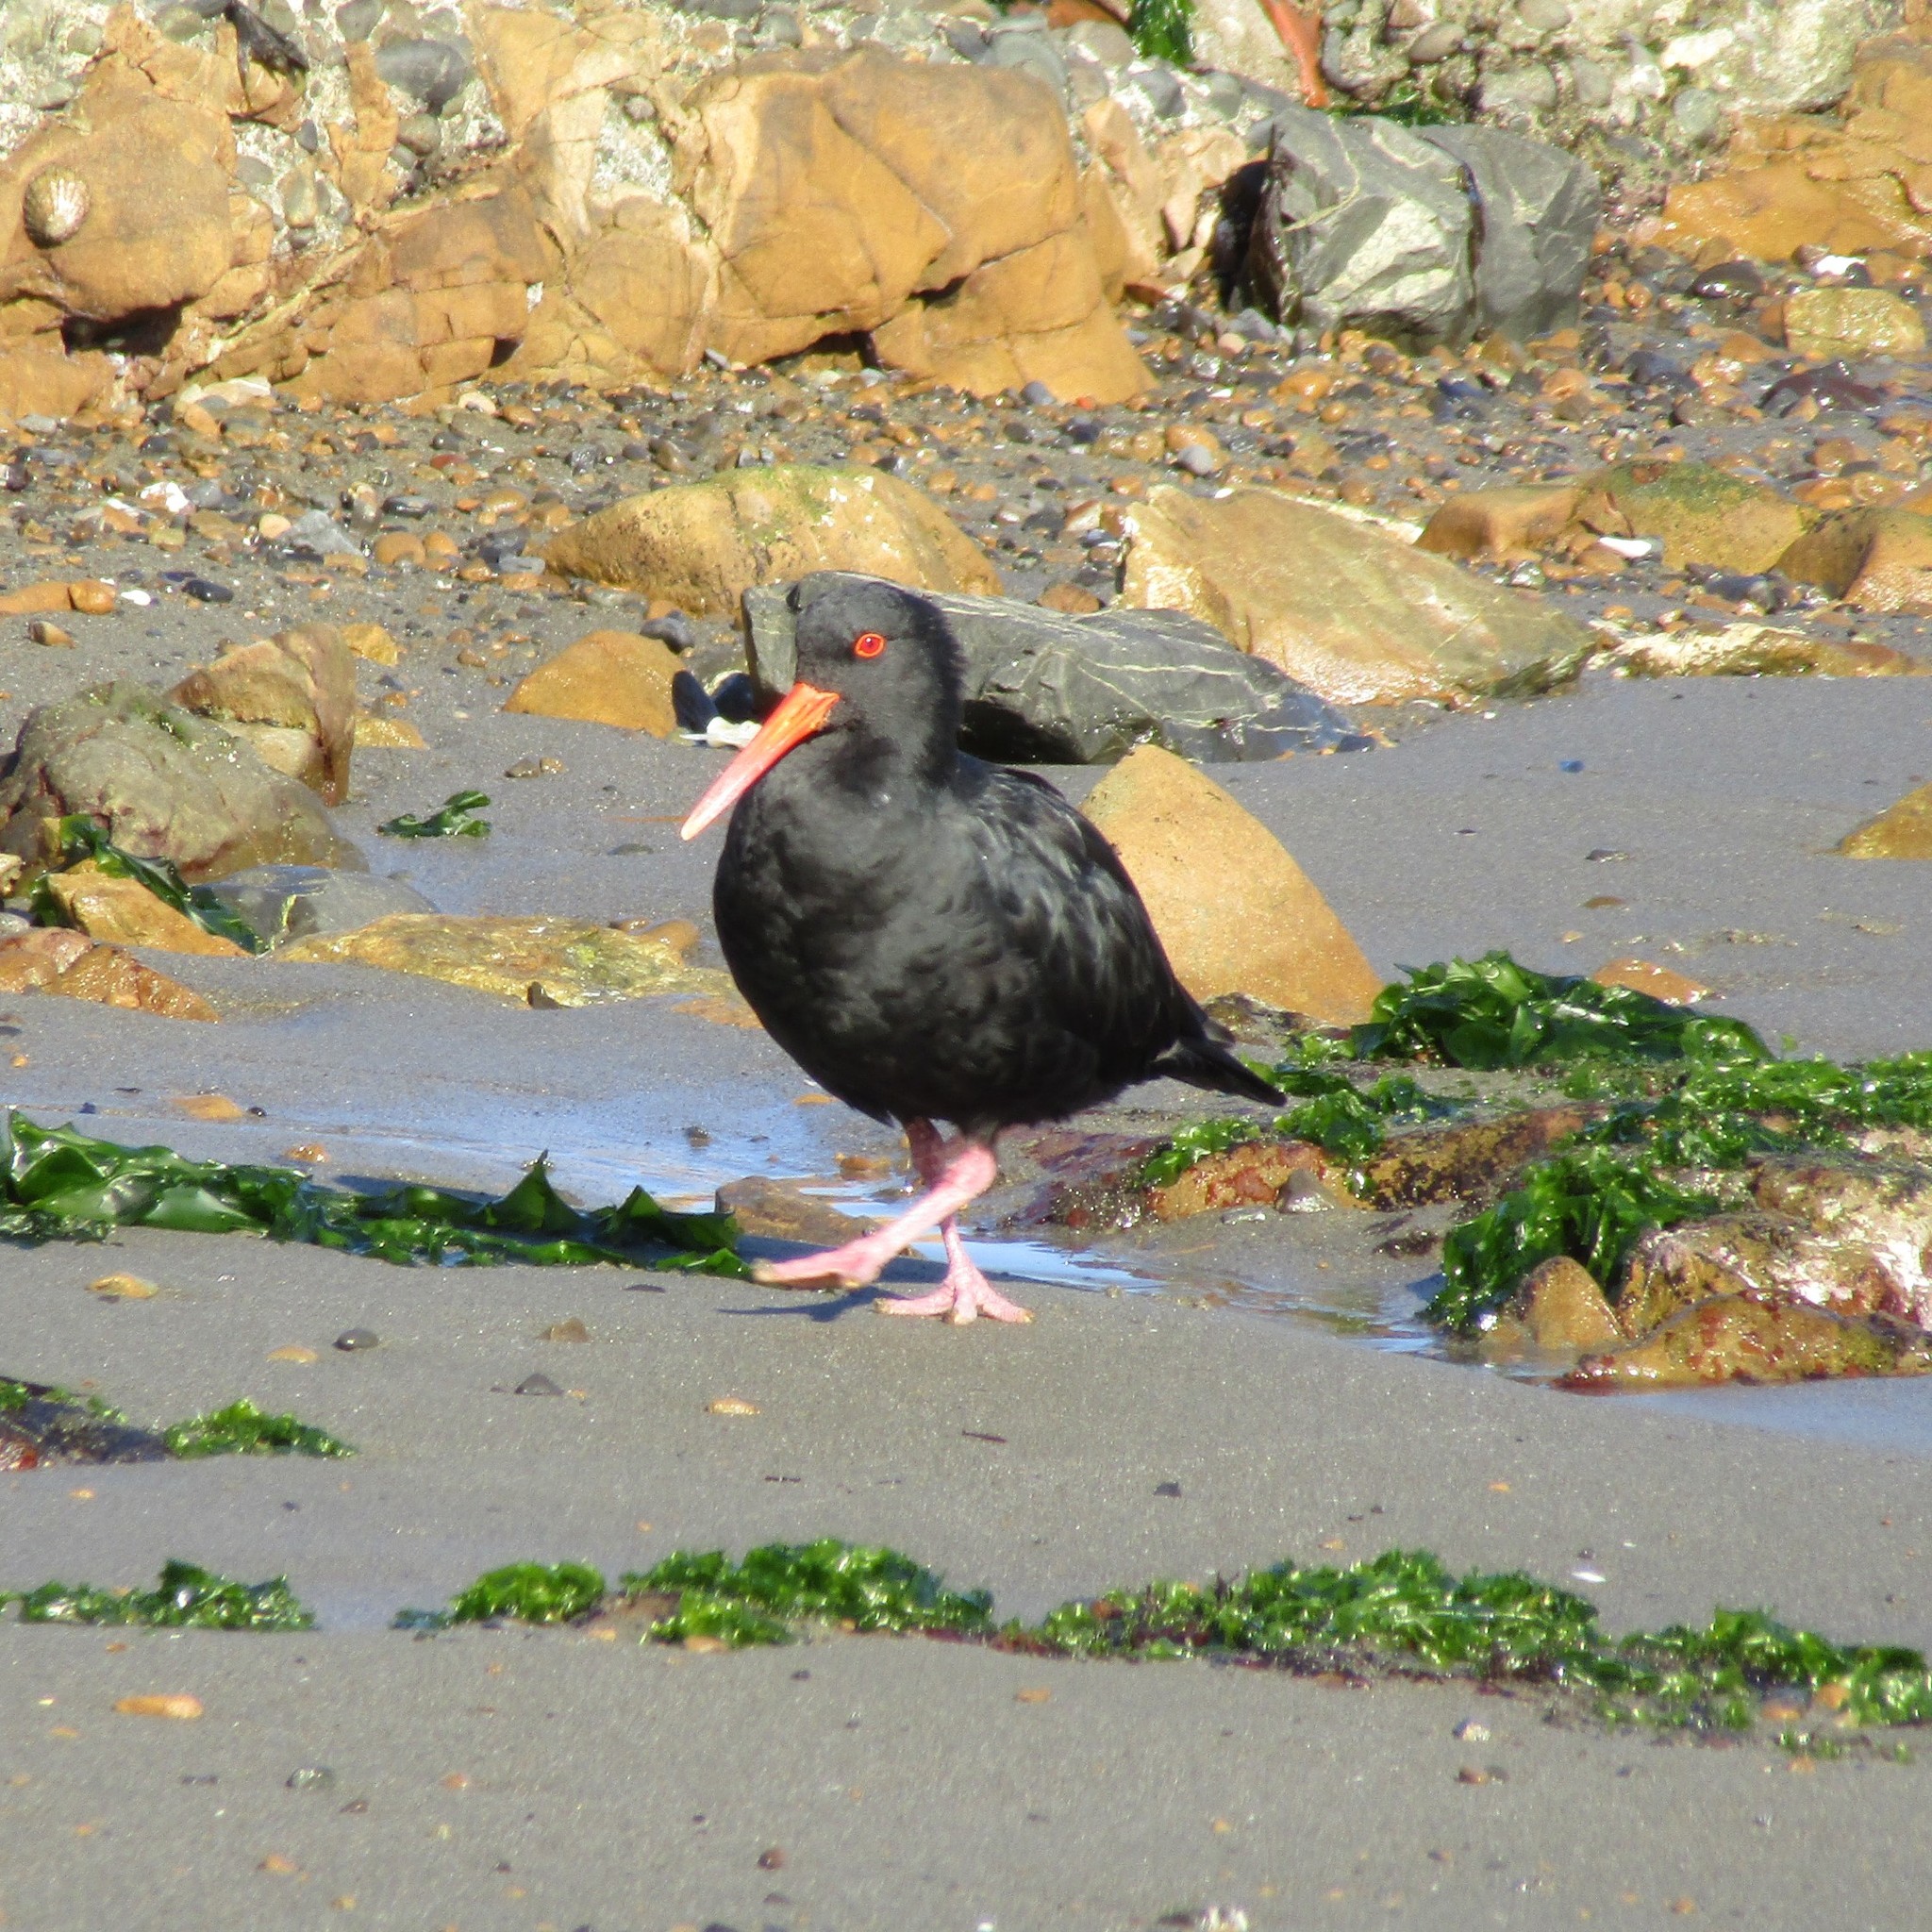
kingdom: Animalia
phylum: Chordata
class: Aves
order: Charadriiformes
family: Haematopodidae
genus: Haematopus
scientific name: Haematopus unicolor
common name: Variable oystercatcher
